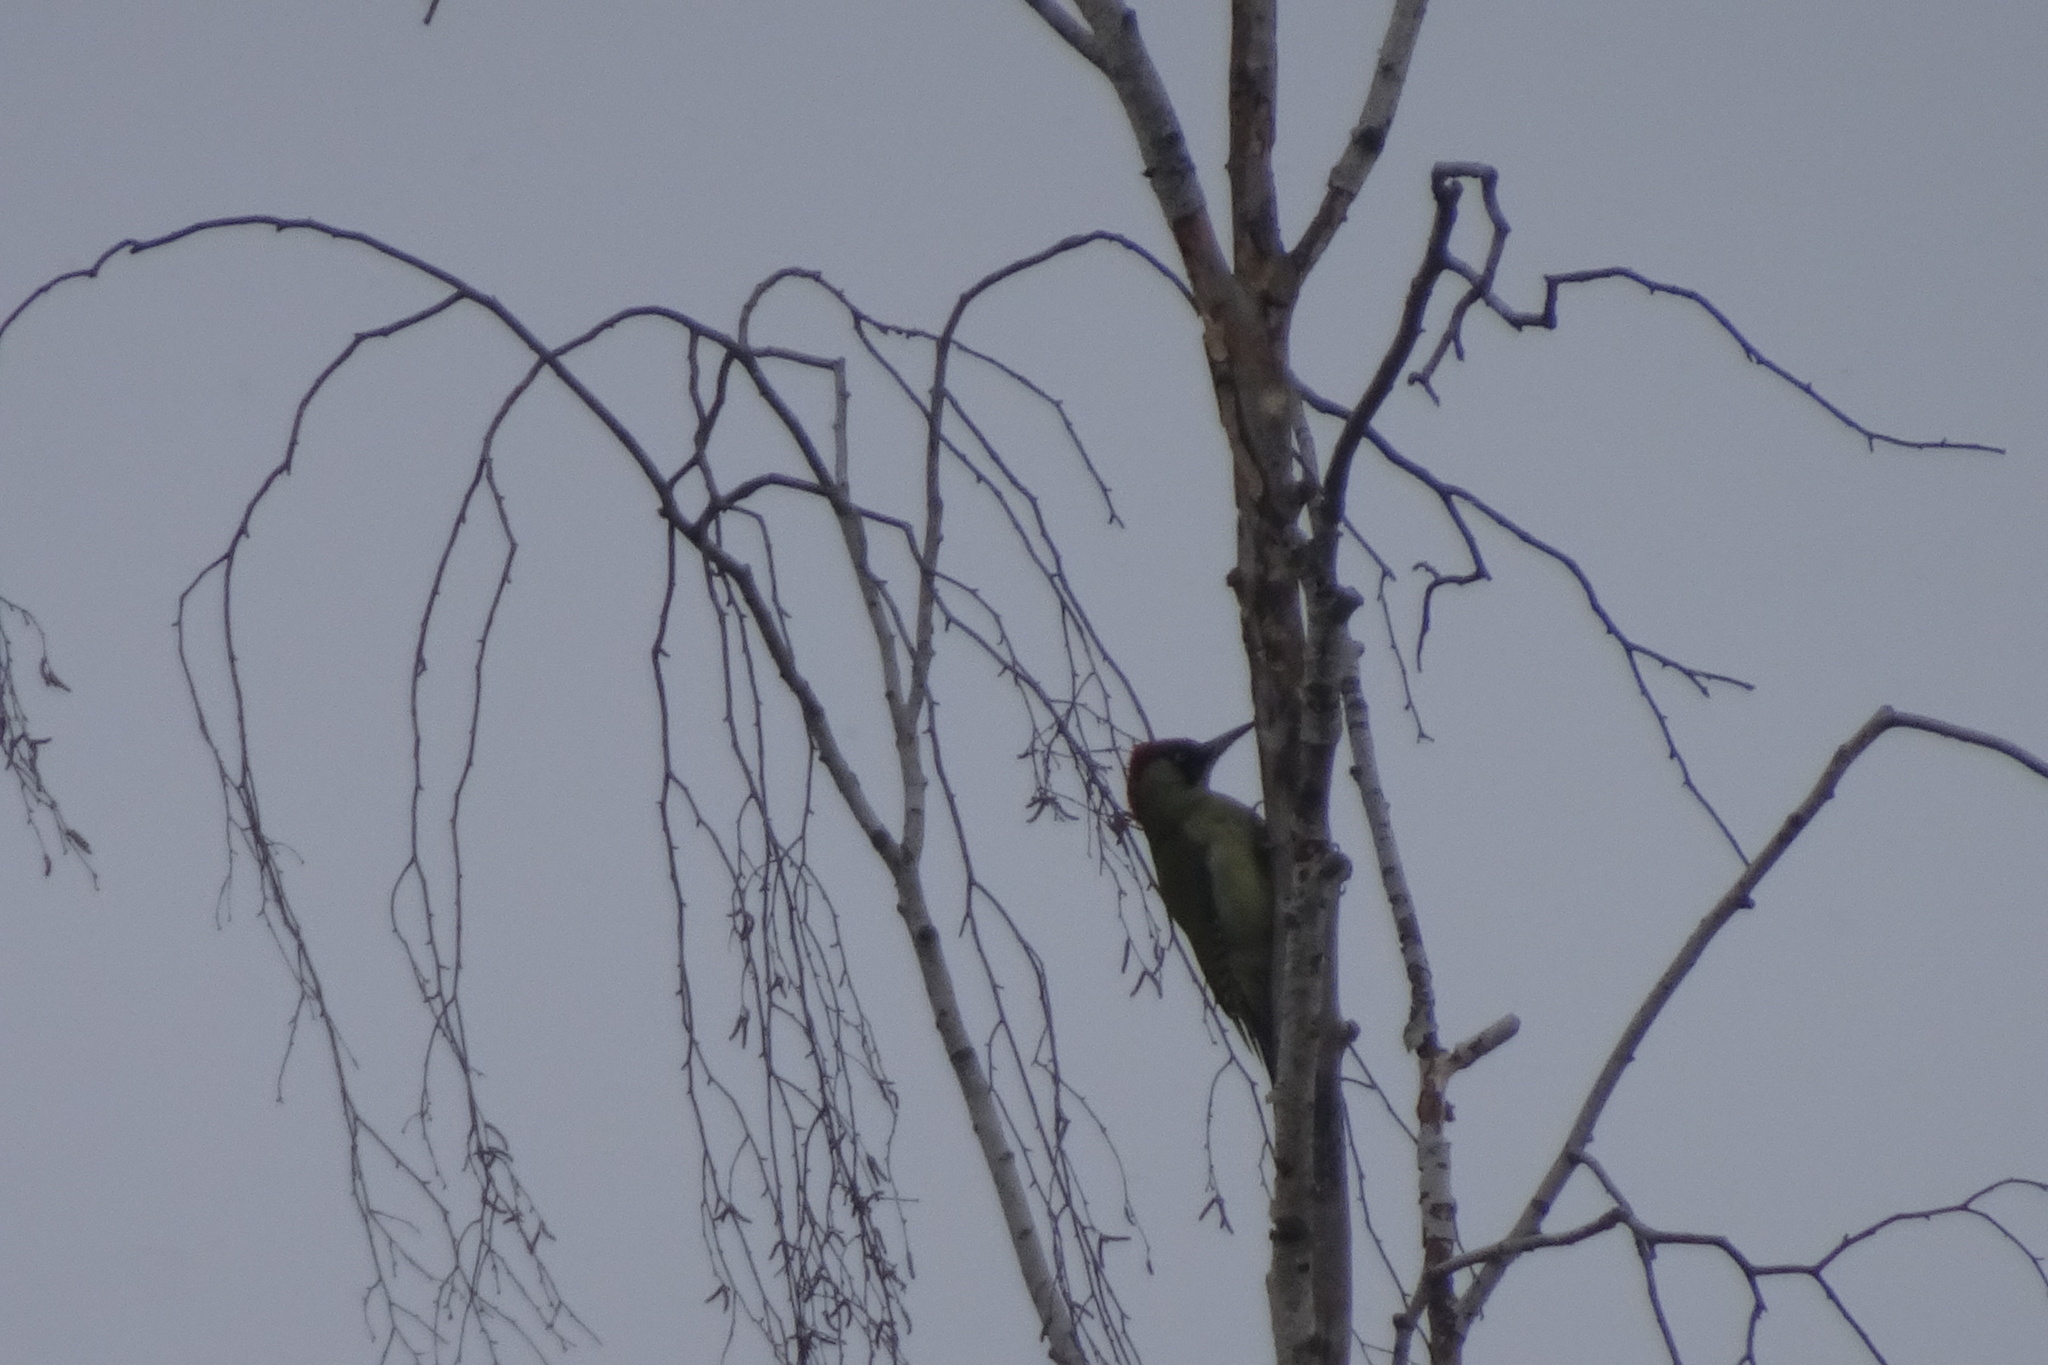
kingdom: Animalia
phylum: Chordata
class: Aves
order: Piciformes
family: Picidae
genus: Picus
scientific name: Picus viridis
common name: European green woodpecker
